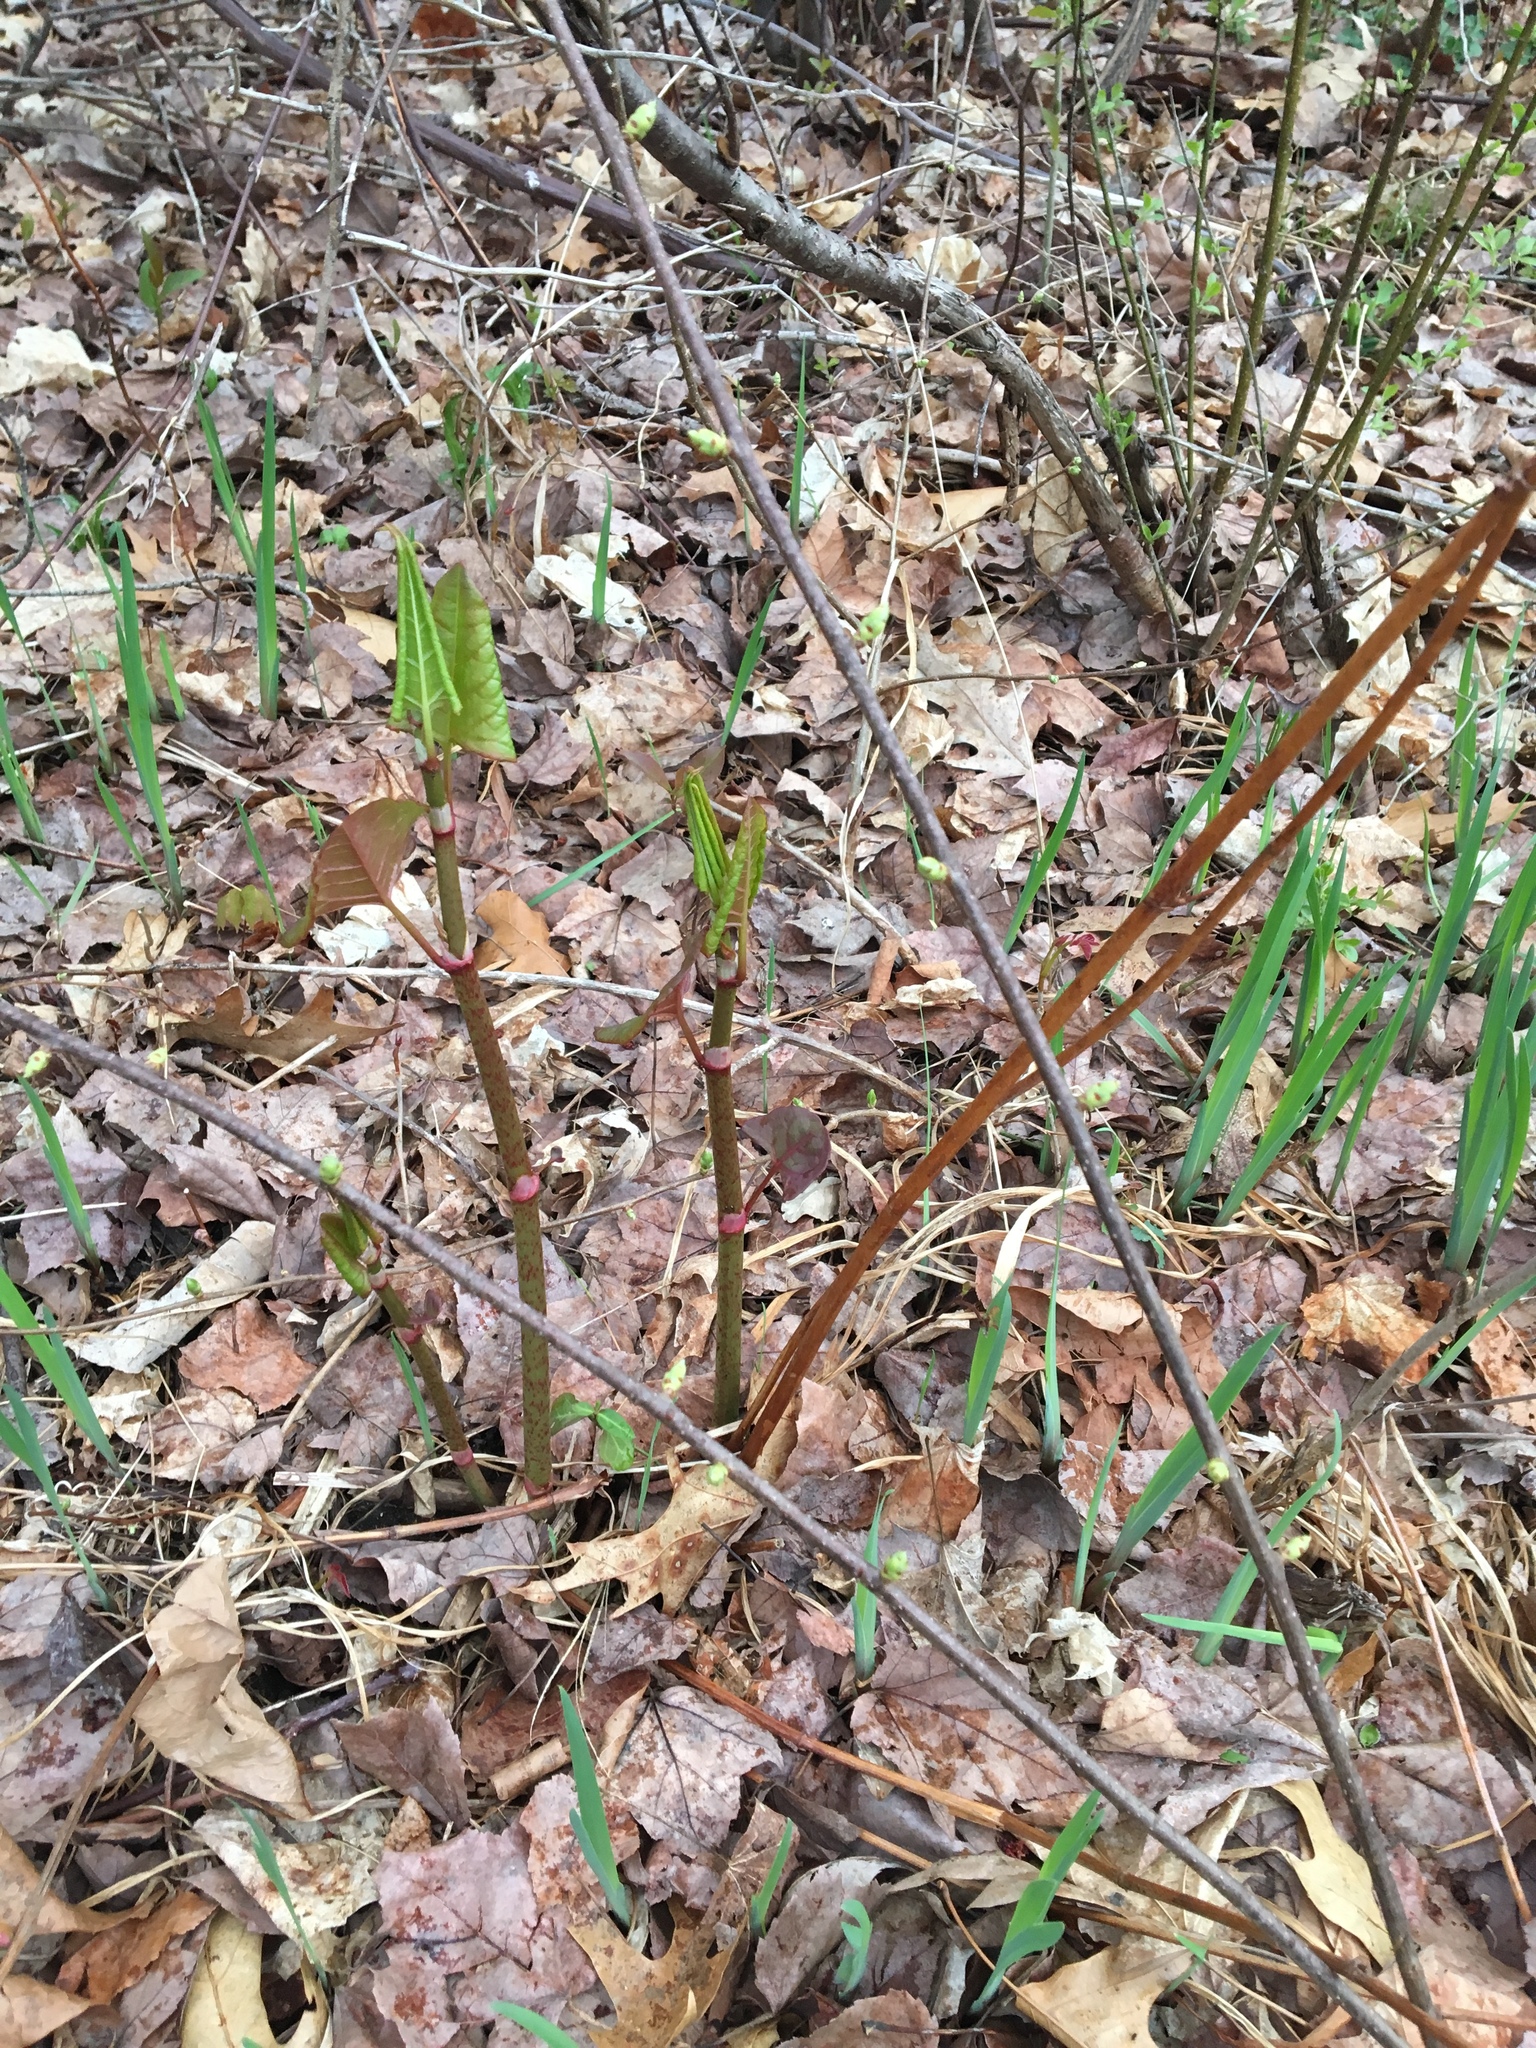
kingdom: Plantae
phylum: Tracheophyta
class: Magnoliopsida
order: Caryophyllales
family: Polygonaceae
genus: Reynoutria
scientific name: Reynoutria japonica
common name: Japanese knotweed
